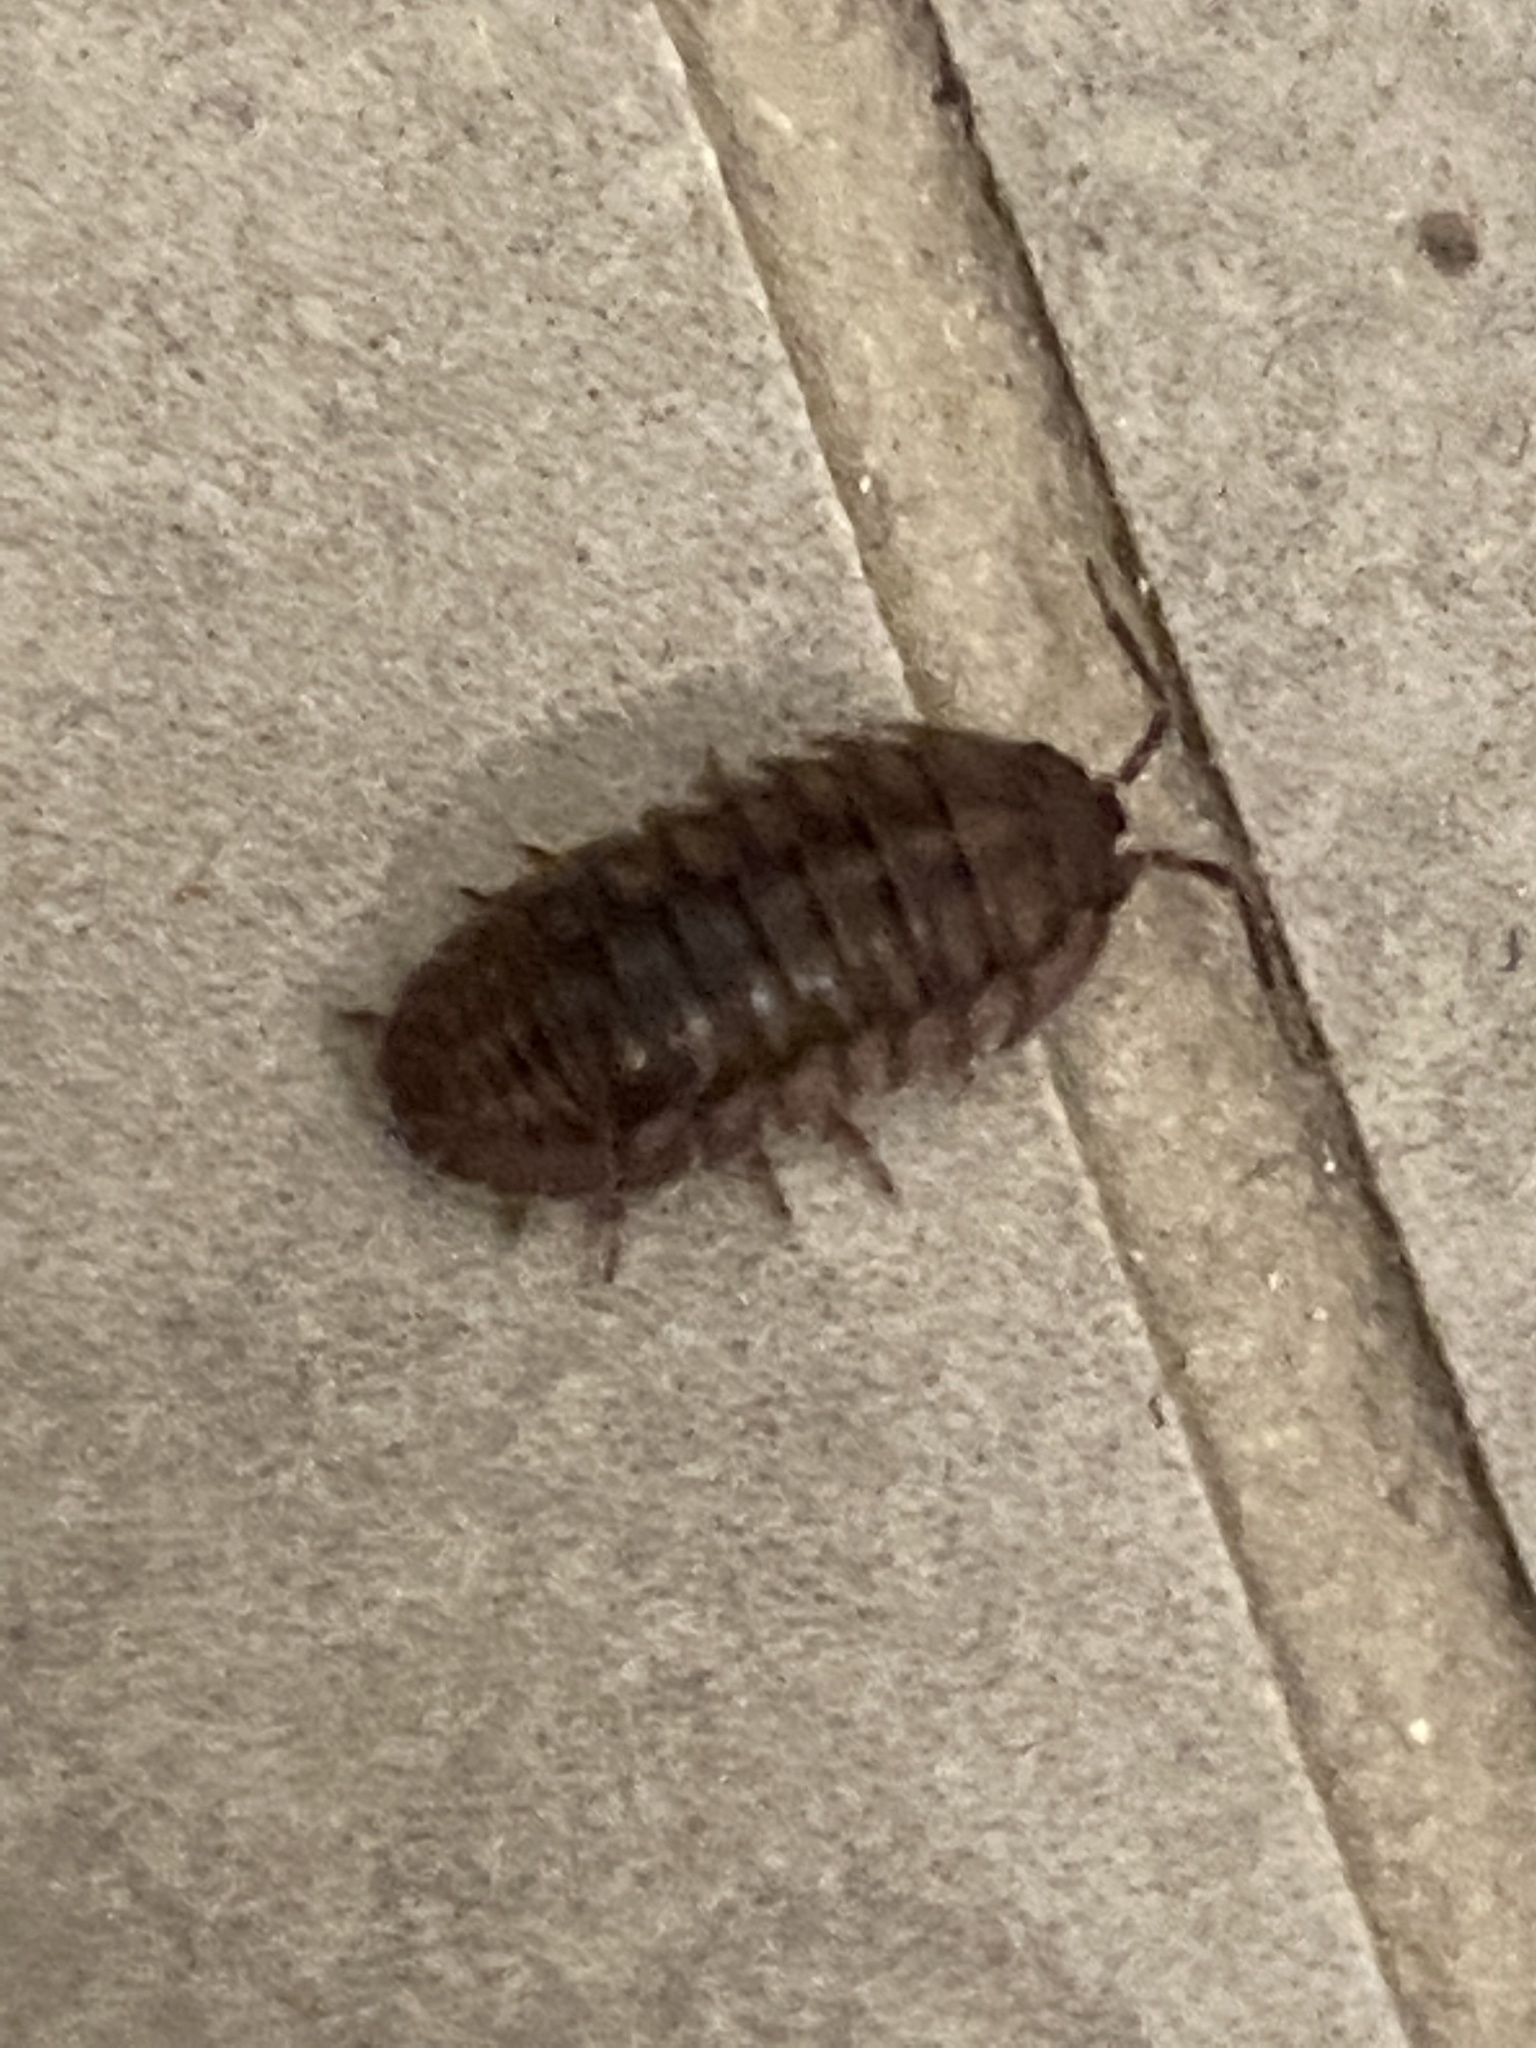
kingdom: Animalia
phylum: Arthropoda
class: Malacostraca
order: Isopoda
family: Armadillidiidae
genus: Armadillidium
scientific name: Armadillidium nasatum
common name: Isopod
